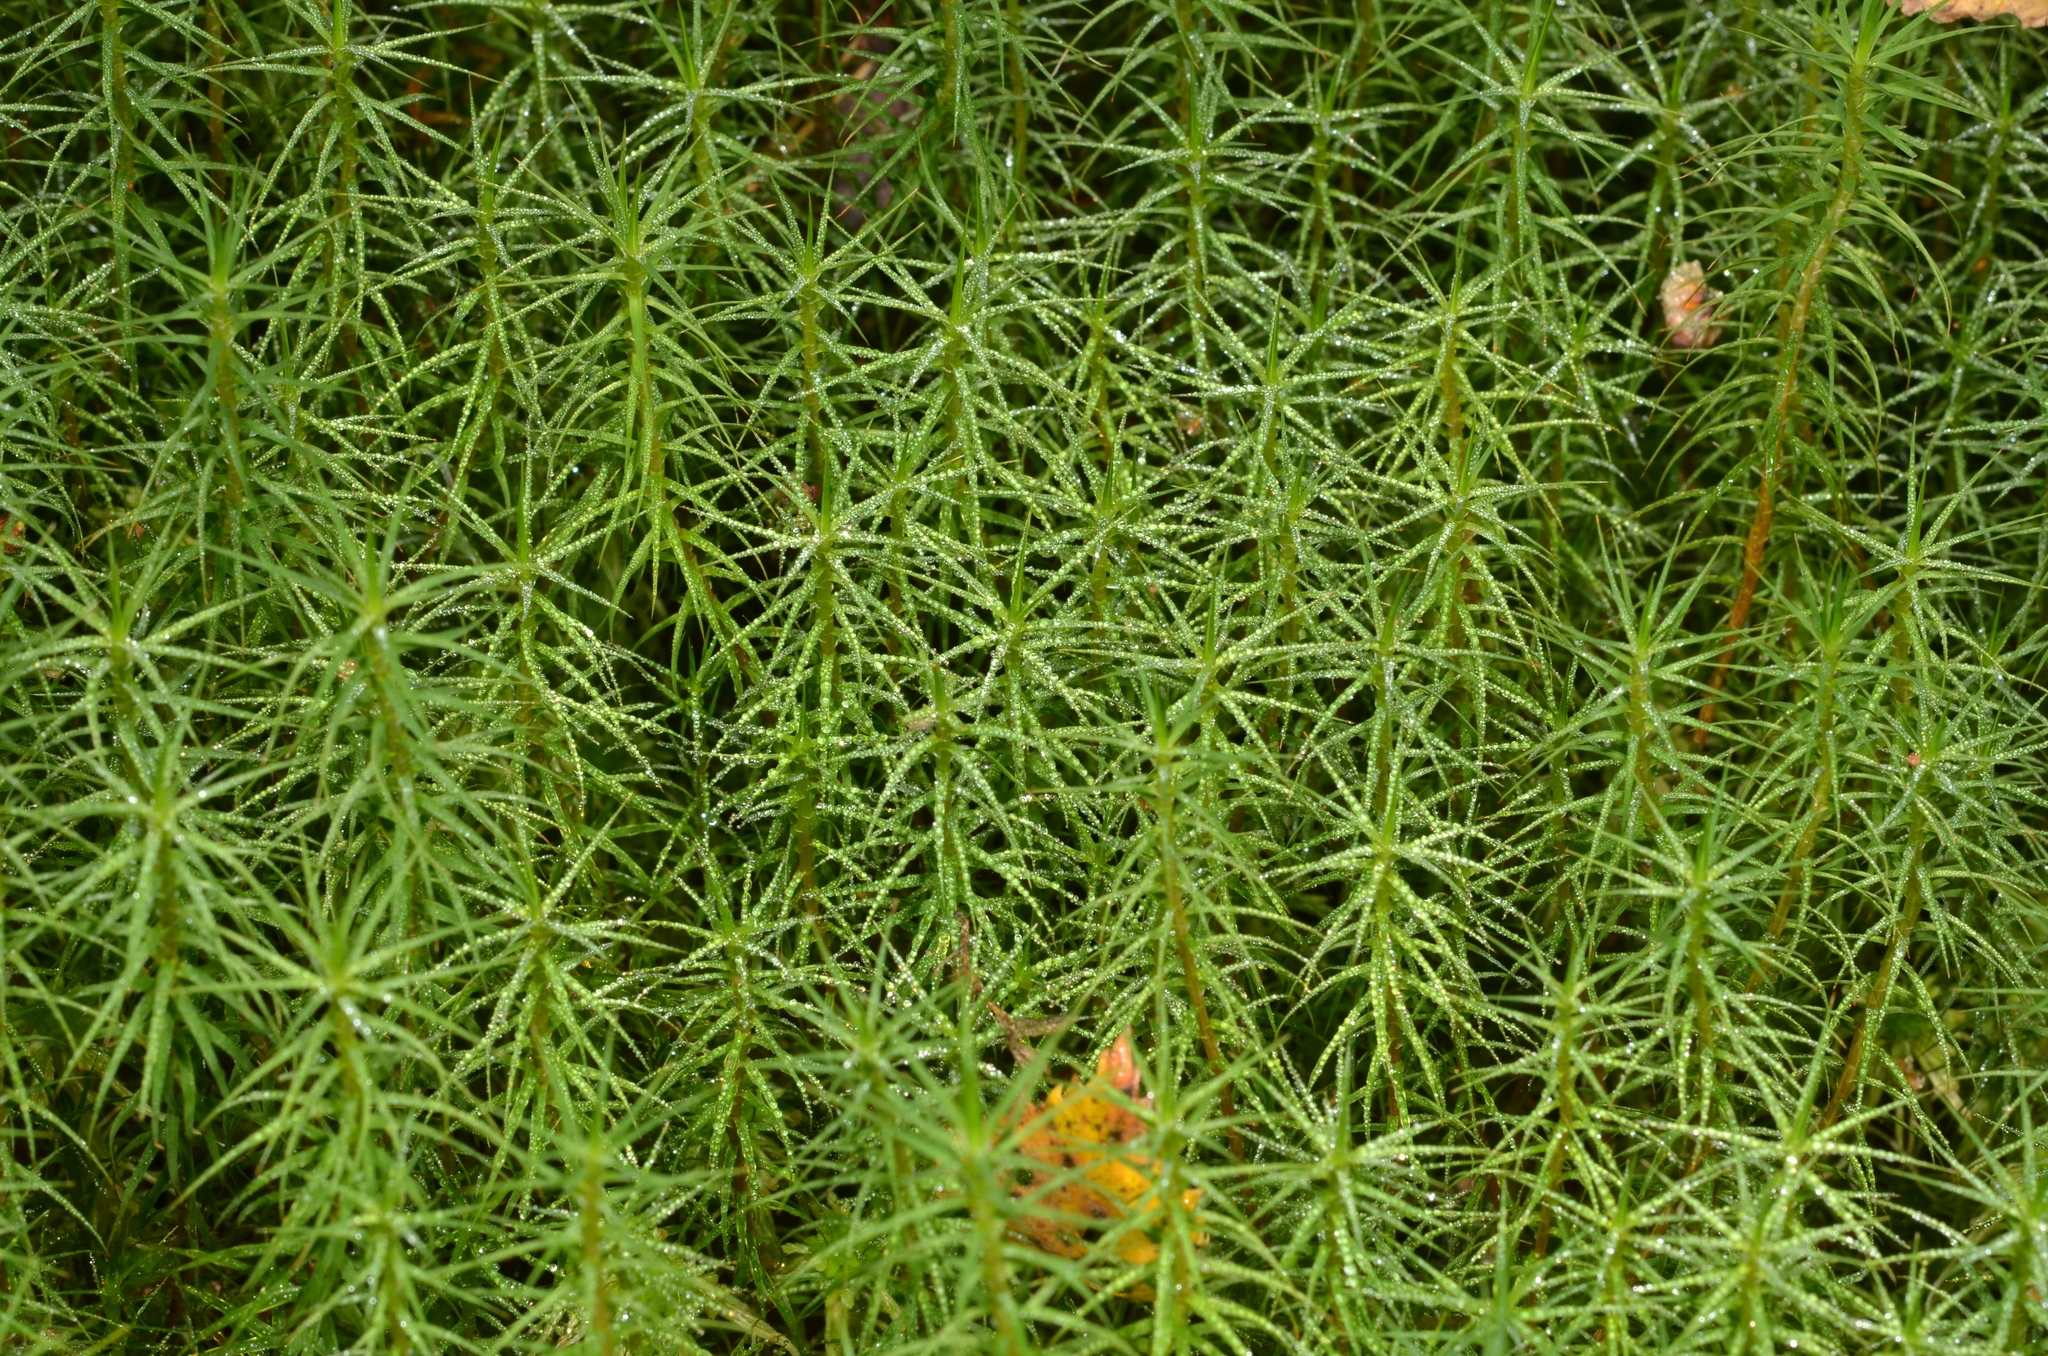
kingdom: Plantae
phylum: Bryophyta
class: Polytrichopsida
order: Polytrichales
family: Polytrichaceae
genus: Polytrichum
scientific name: Polytrichum commune
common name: Common haircap
